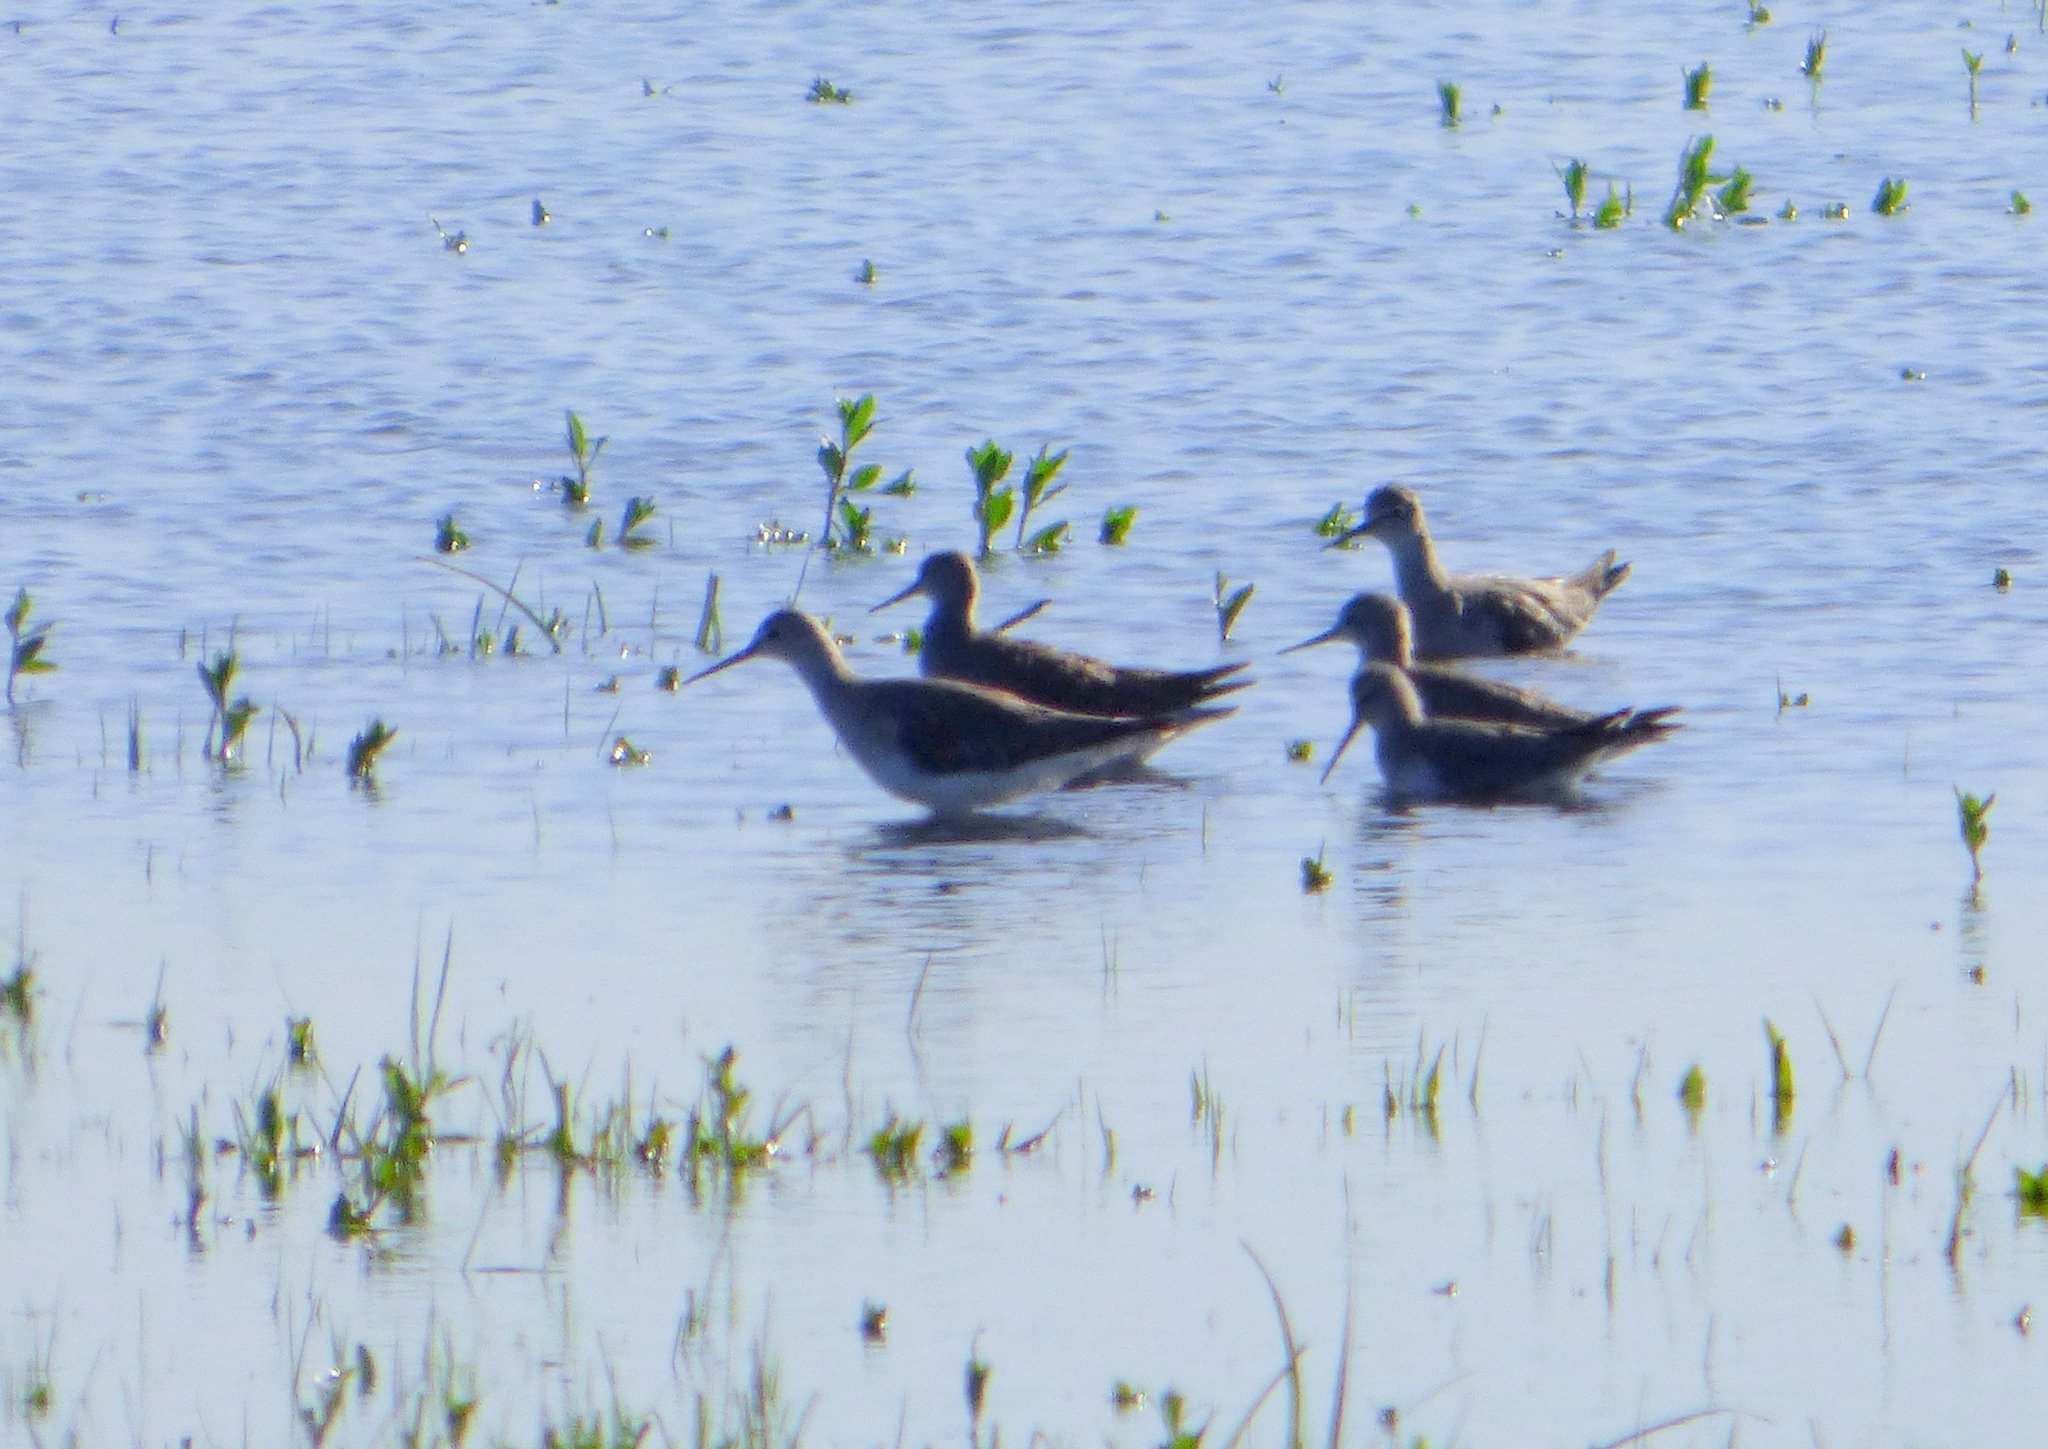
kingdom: Animalia
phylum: Chordata
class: Aves
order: Charadriiformes
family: Scolopacidae
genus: Tringa
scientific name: Tringa flavipes
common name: Lesser yellowlegs
